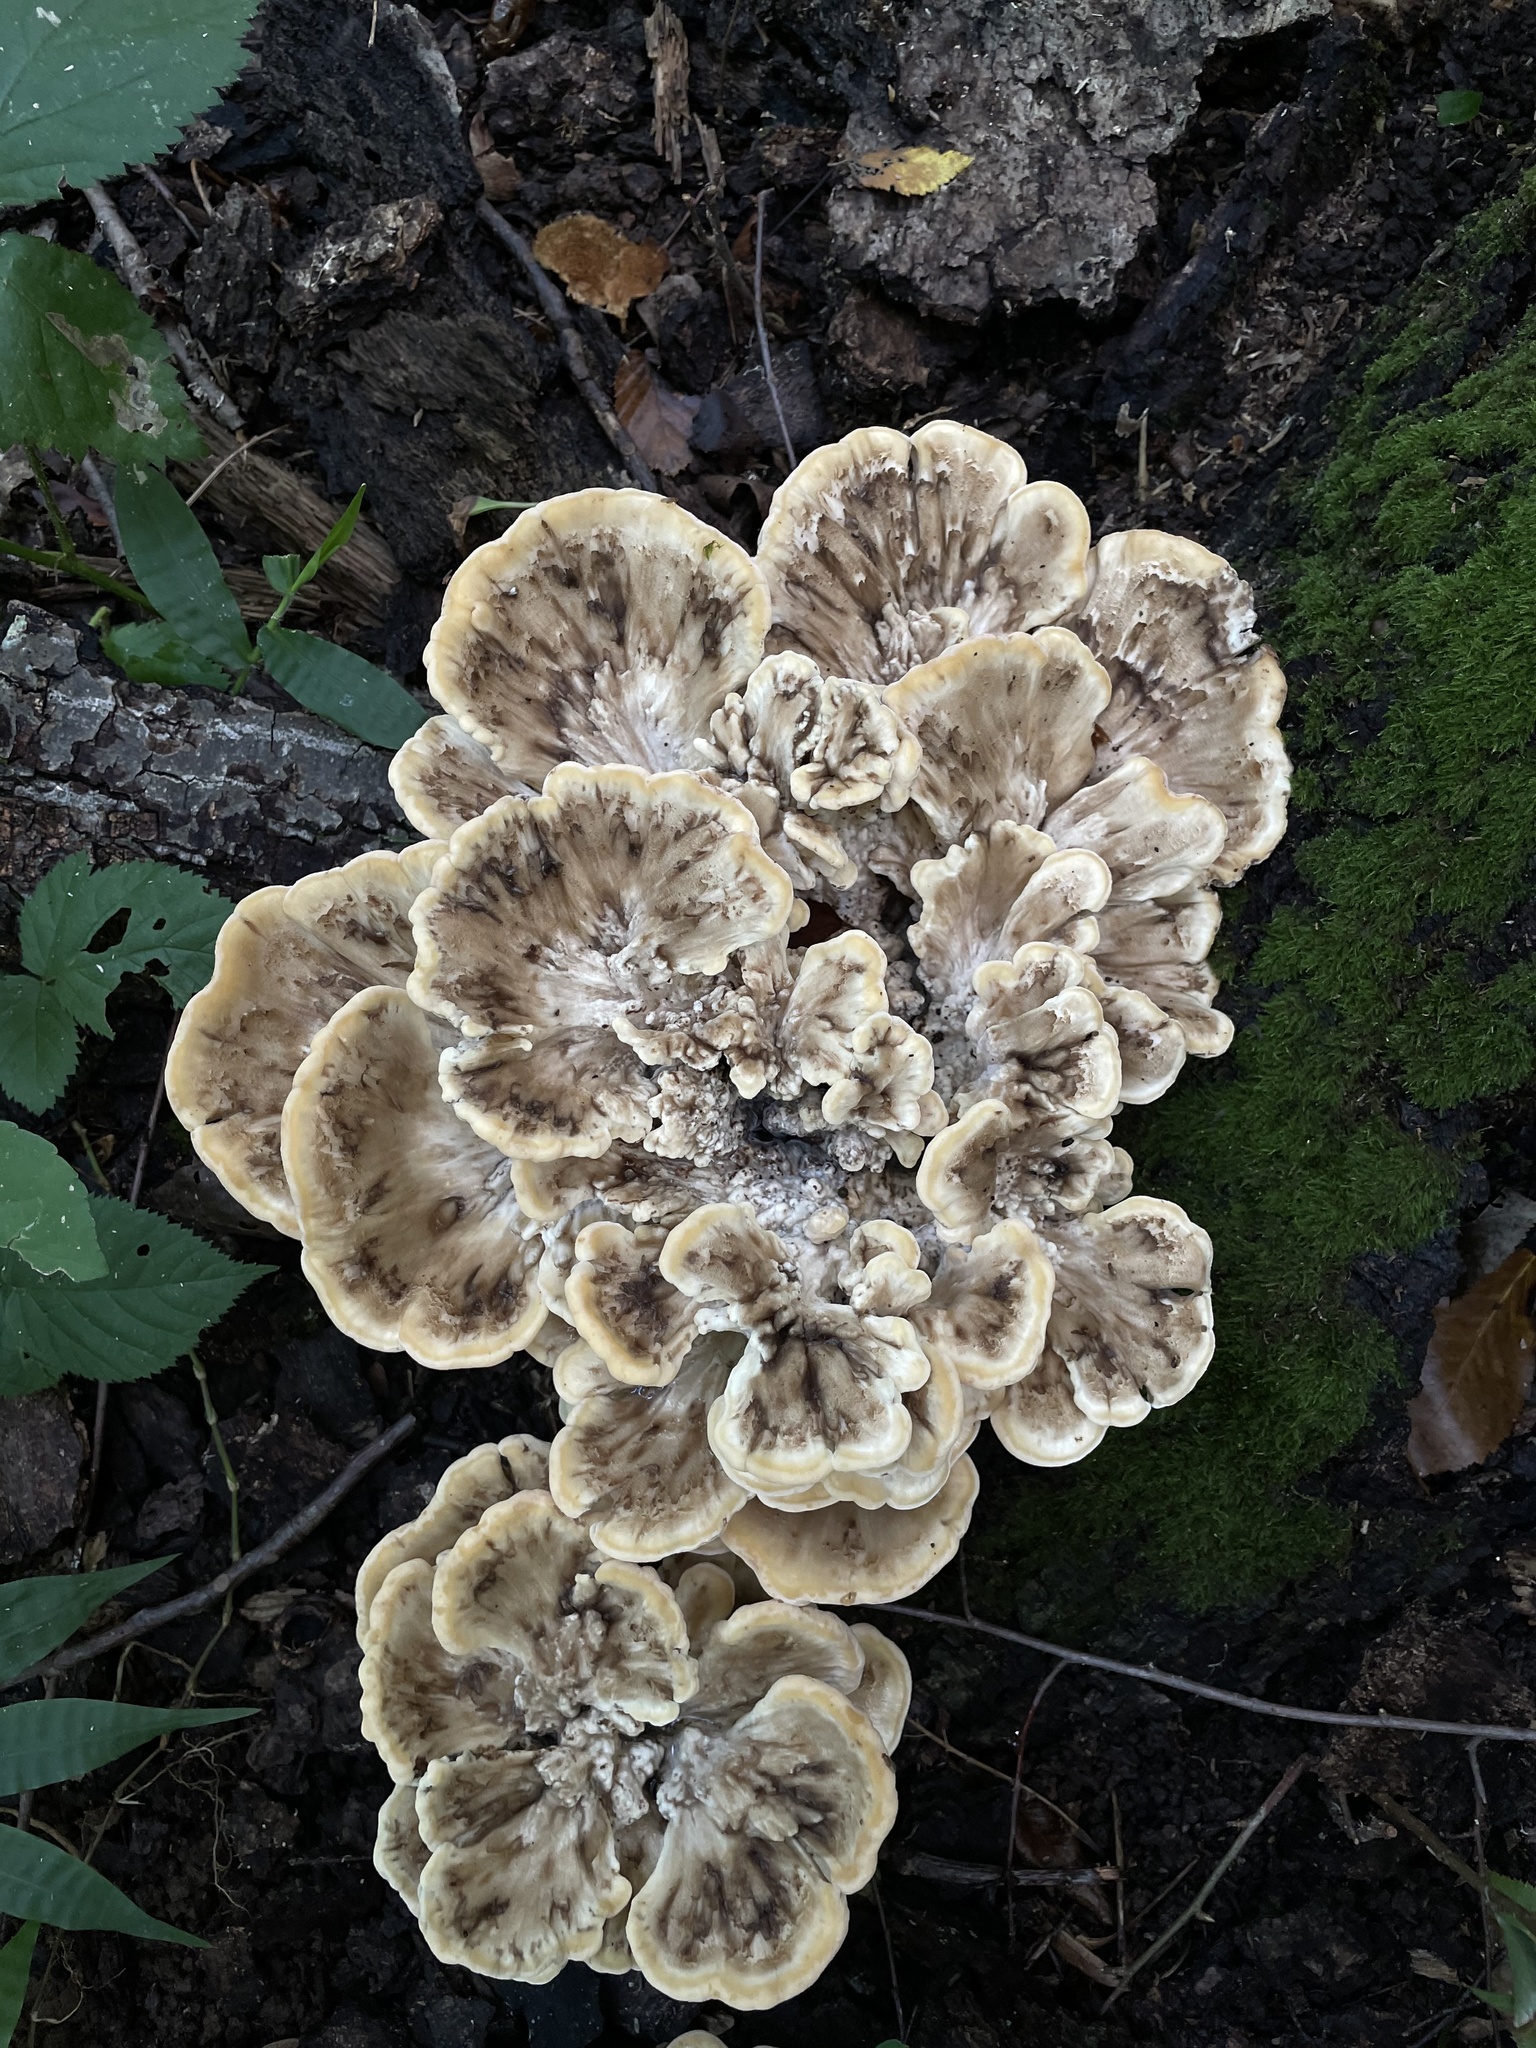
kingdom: Fungi
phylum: Basidiomycota
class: Agaricomycetes
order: Polyporales
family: Meripilaceae
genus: Meripilus
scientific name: Meripilus sumstinei
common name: Black-staining polypore
